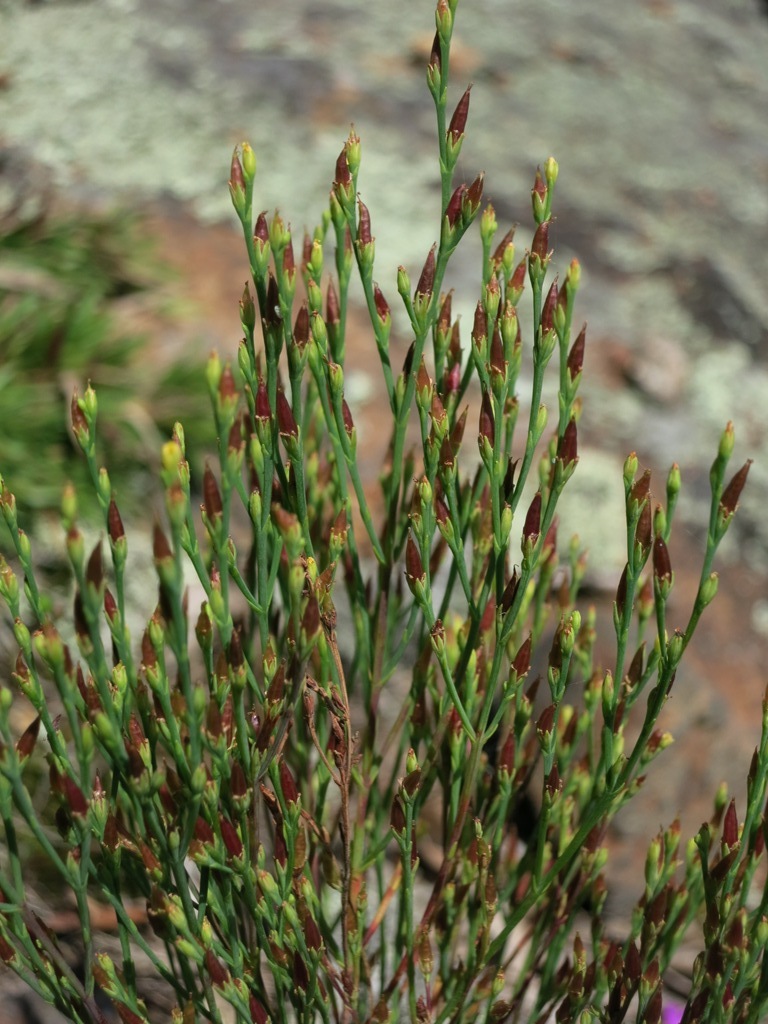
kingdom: Plantae
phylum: Tracheophyta
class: Magnoliopsida
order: Malpighiales
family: Hypericaceae
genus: Hypericum
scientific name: Hypericum gentianoides
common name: Gentian-leaved st. john's-wort
